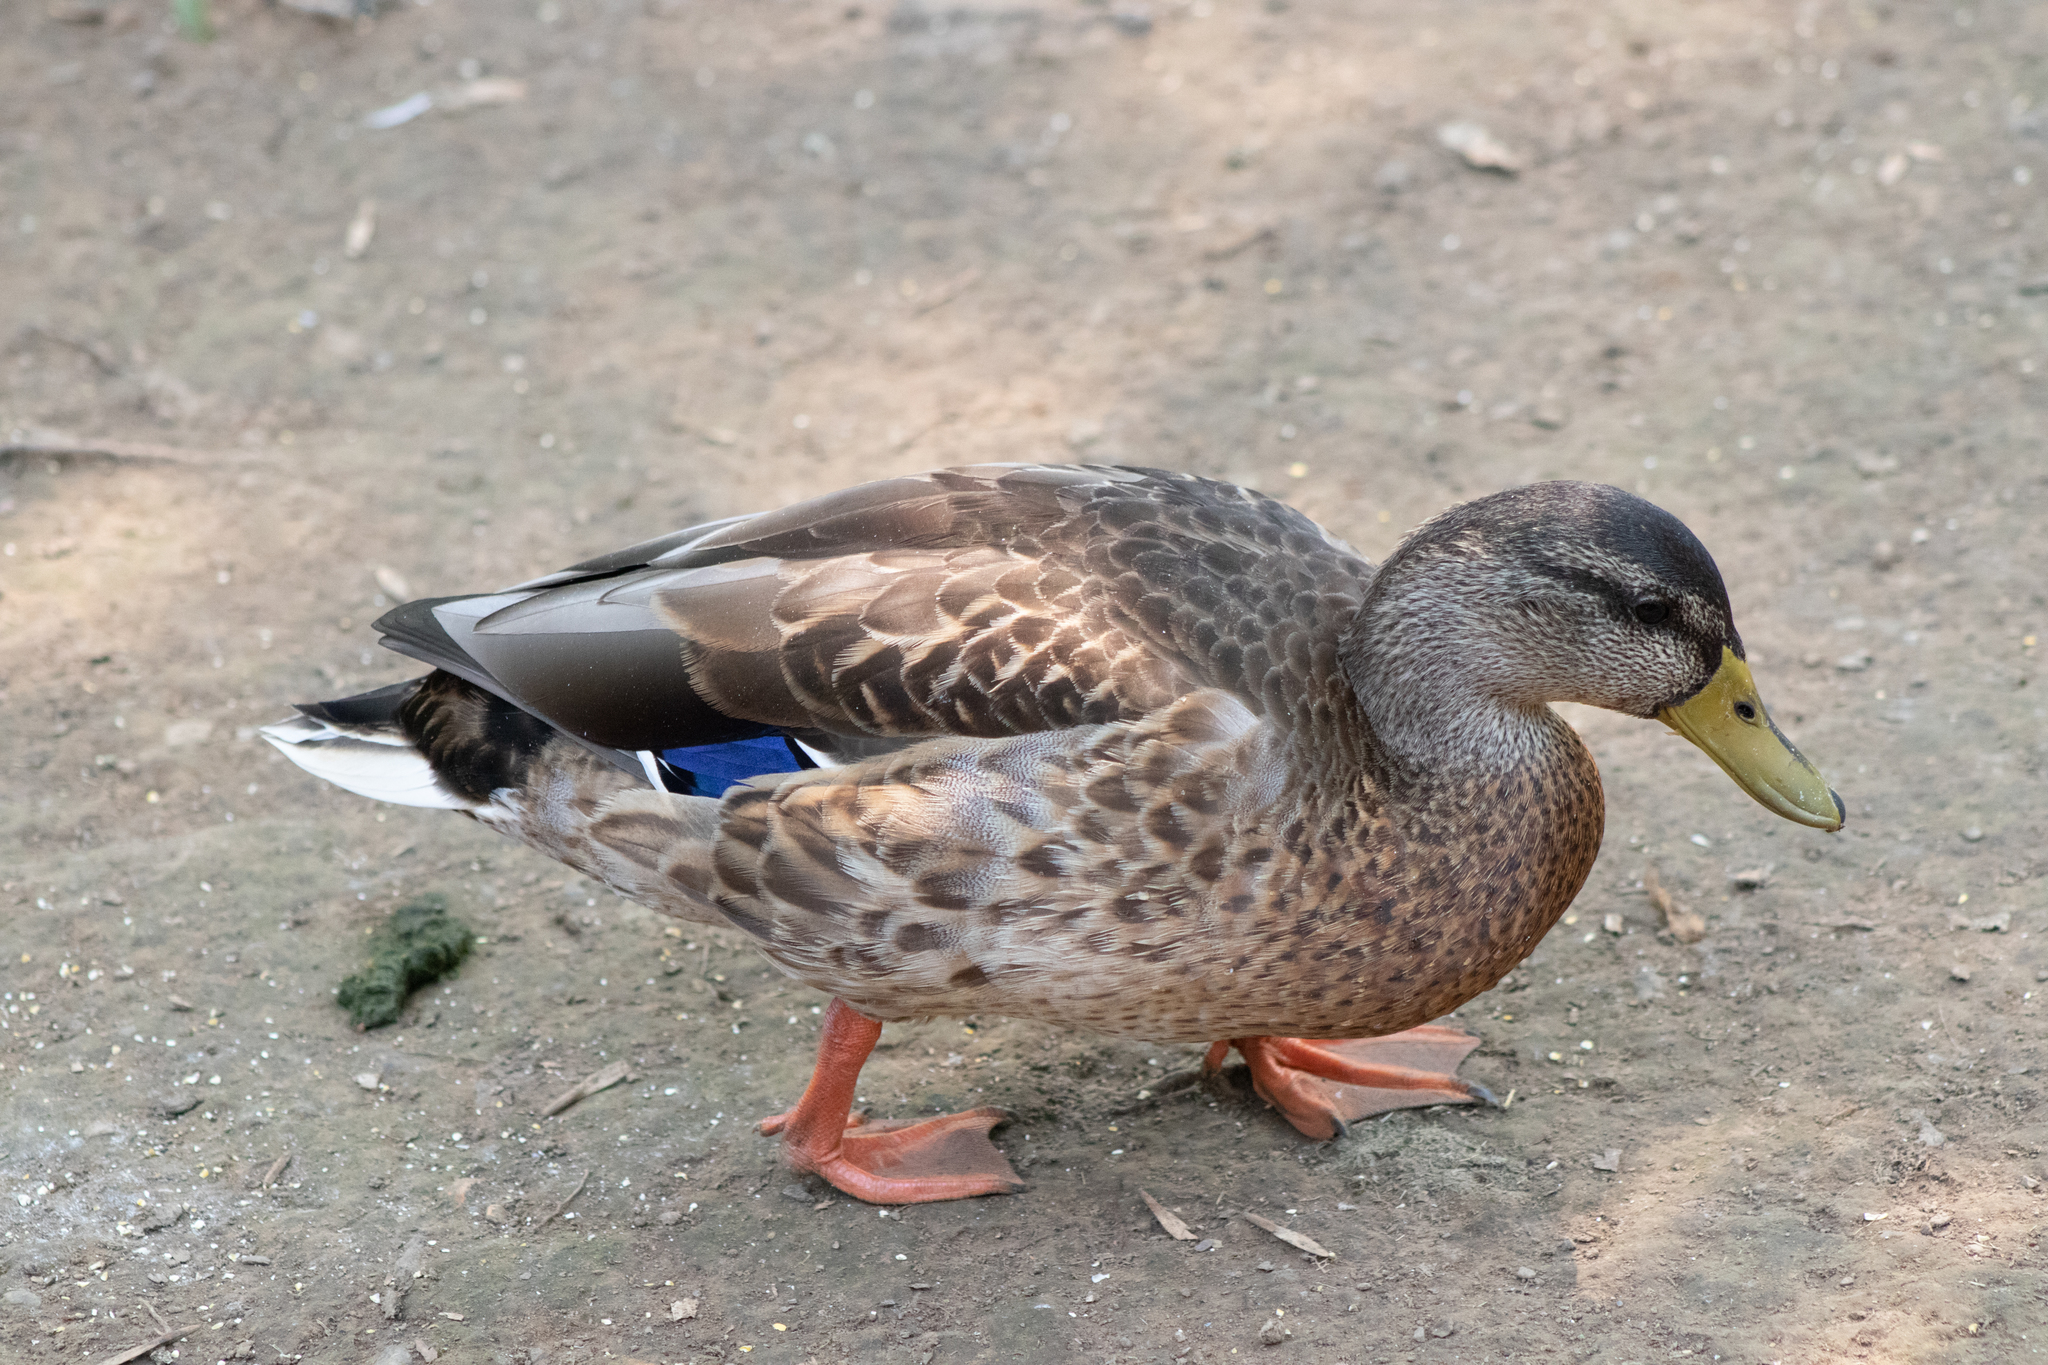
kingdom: Animalia
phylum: Chordata
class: Aves
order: Anseriformes
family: Anatidae
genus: Anas
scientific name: Anas platyrhynchos
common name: Mallard
